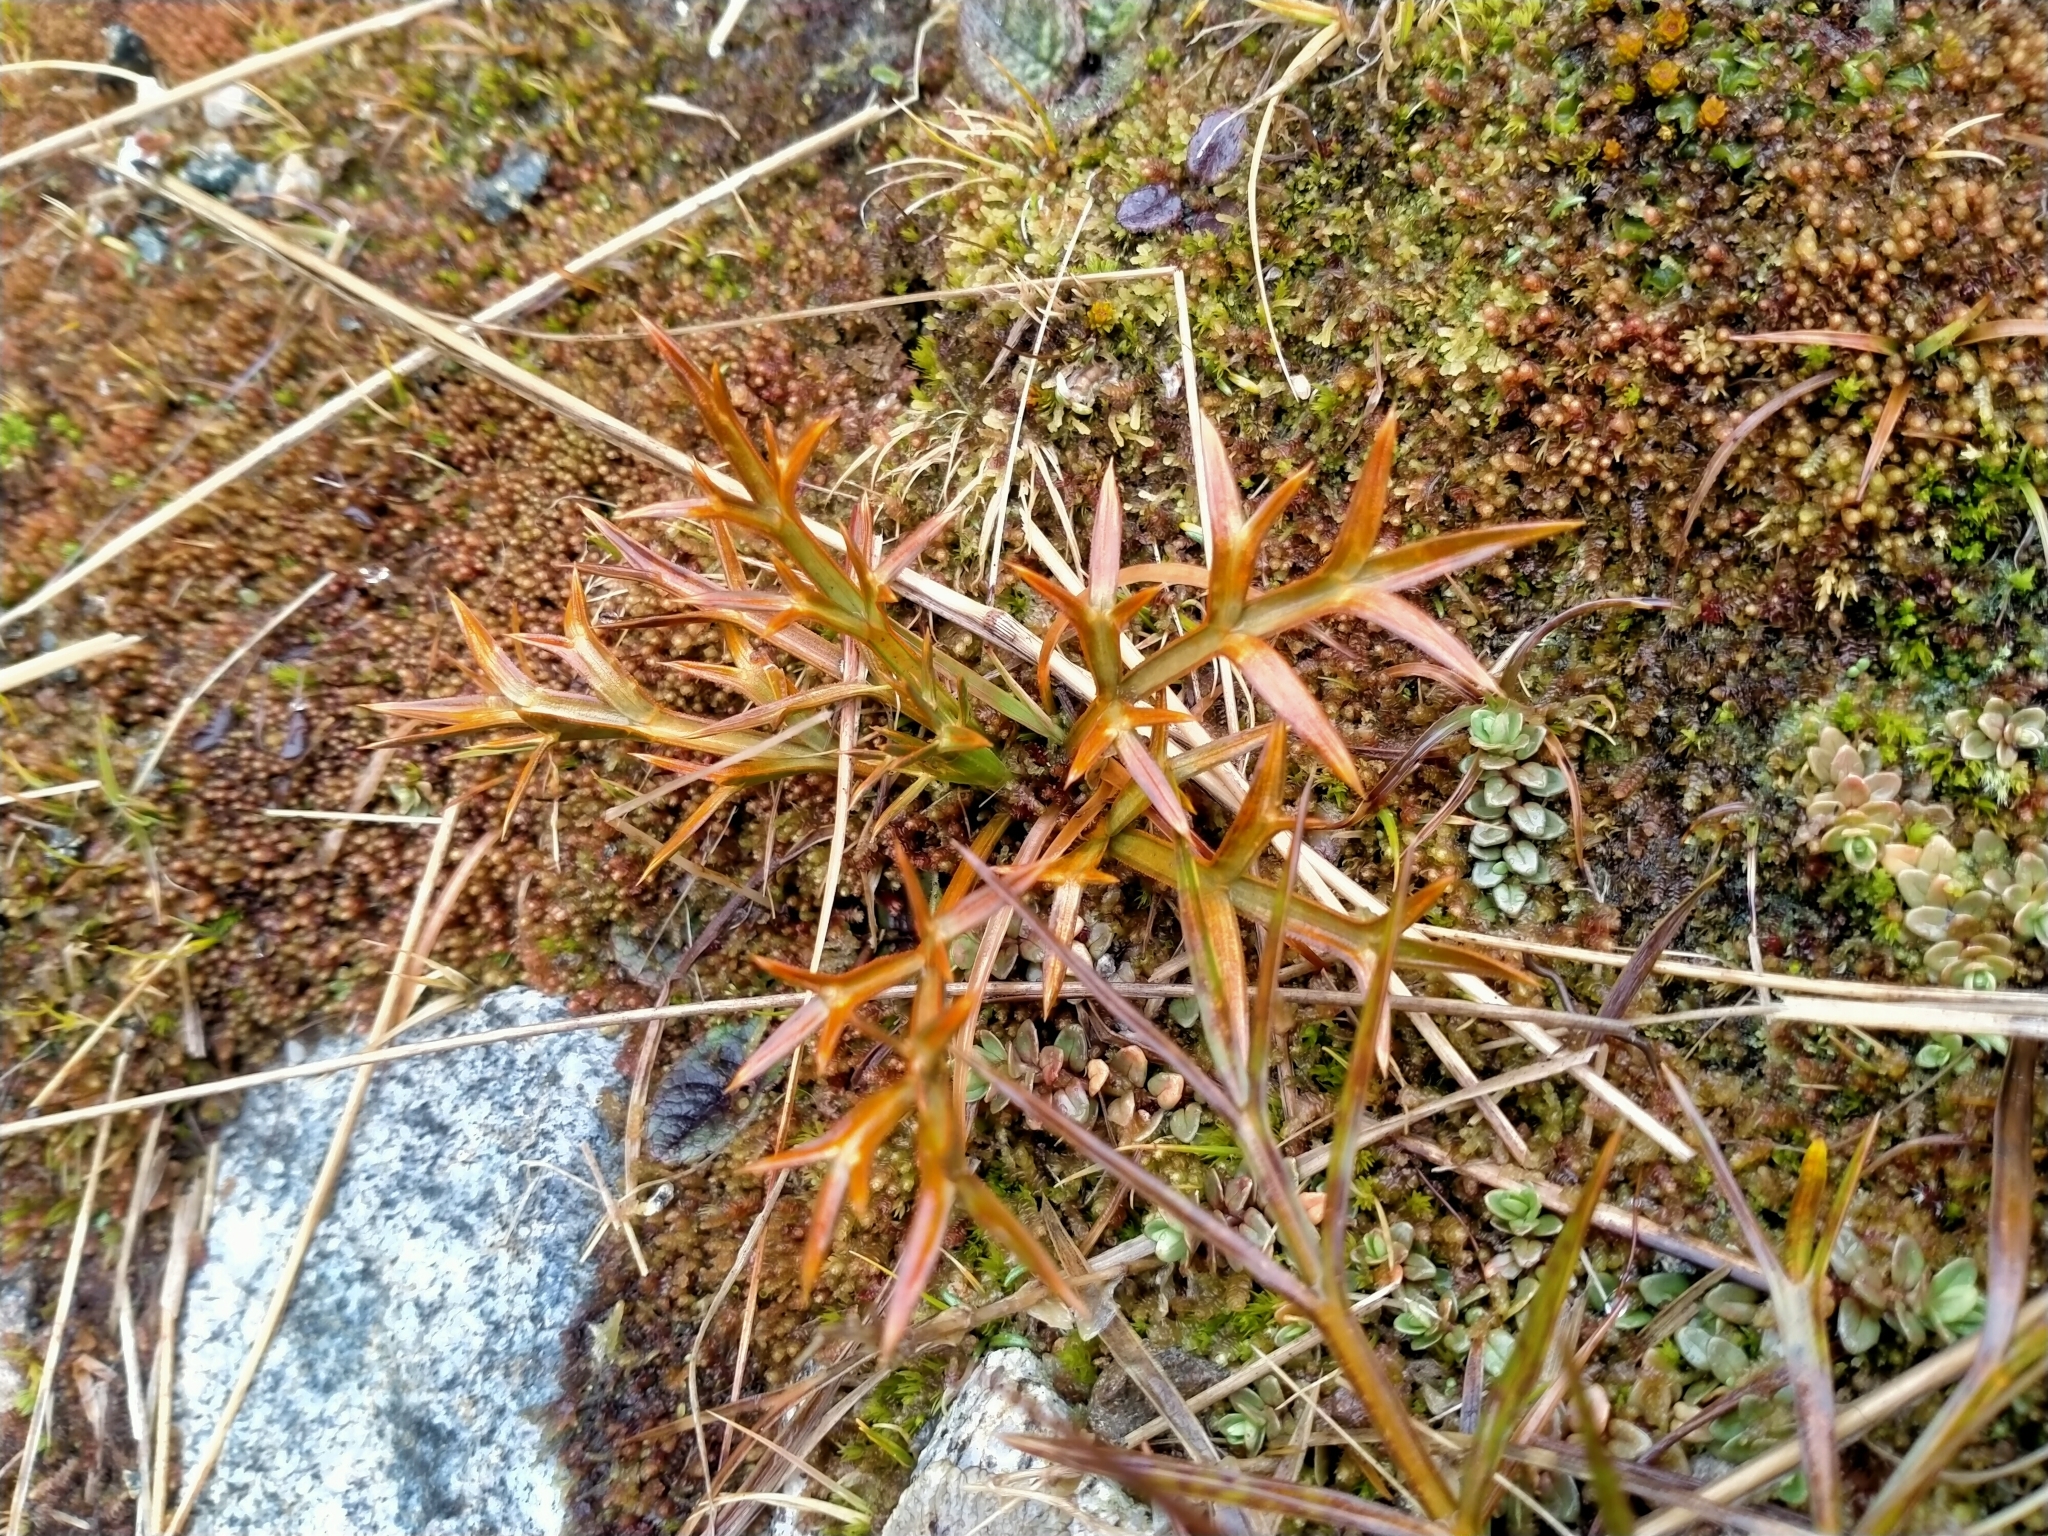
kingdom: Plantae
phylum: Tracheophyta
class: Magnoliopsida
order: Apiales
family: Apiaceae
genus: Aciphylla
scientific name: Aciphylla hookeri
